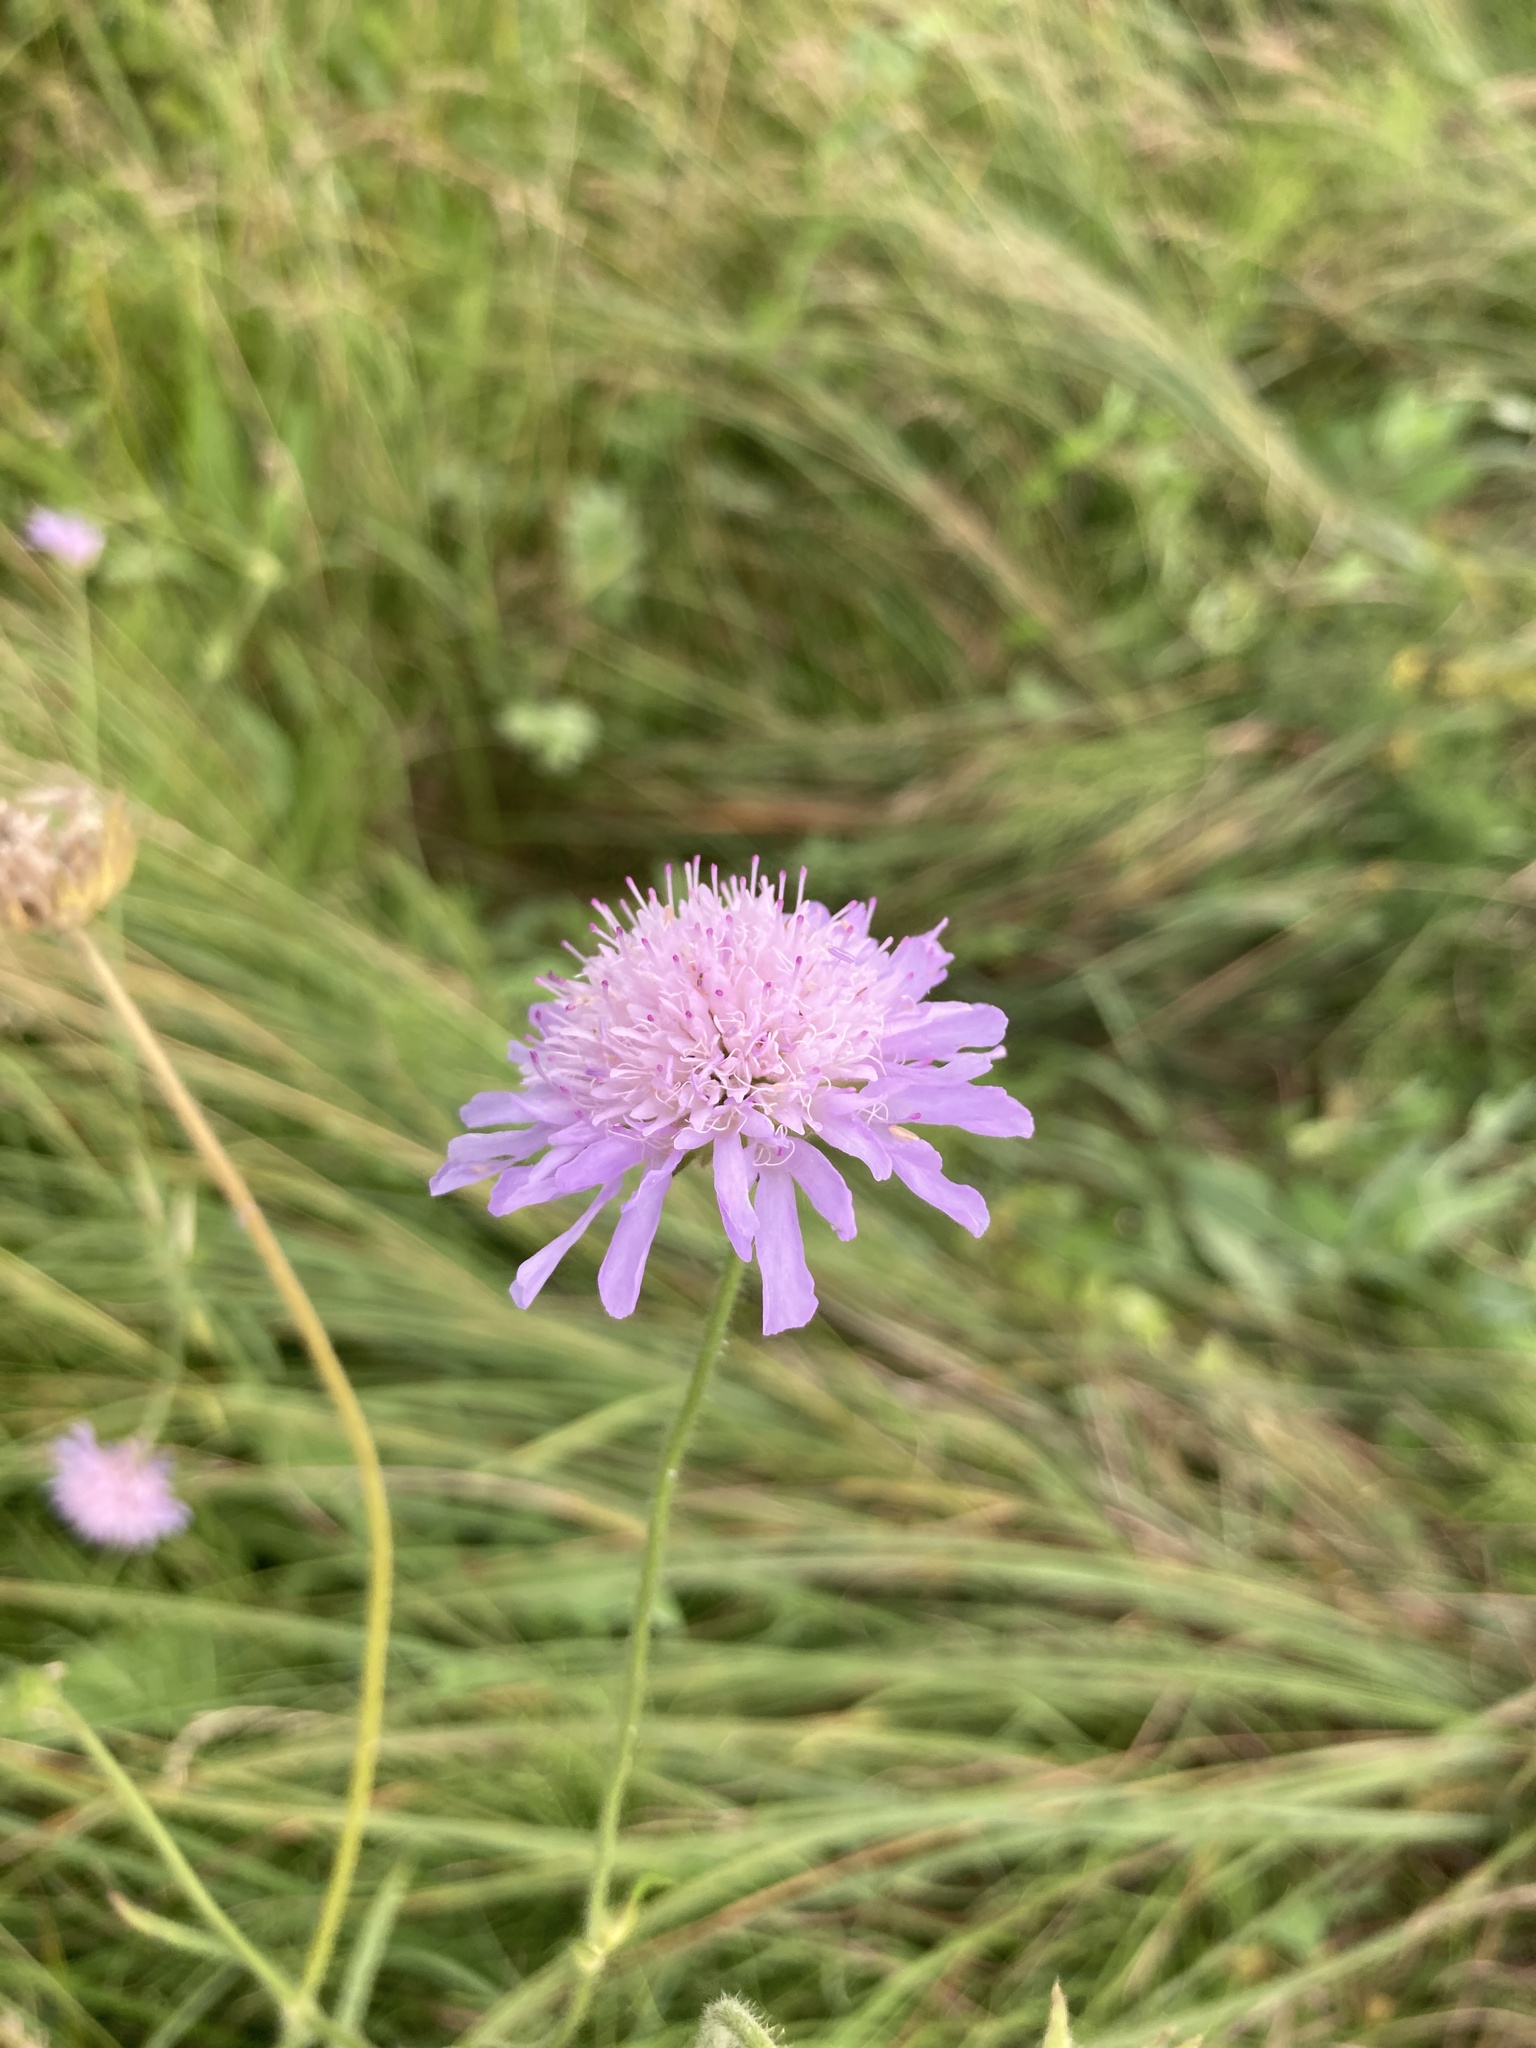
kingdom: Plantae
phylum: Tracheophyta
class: Magnoliopsida
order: Dipsacales
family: Caprifoliaceae
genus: Knautia
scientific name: Knautia arvensis
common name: Field scabiosa
